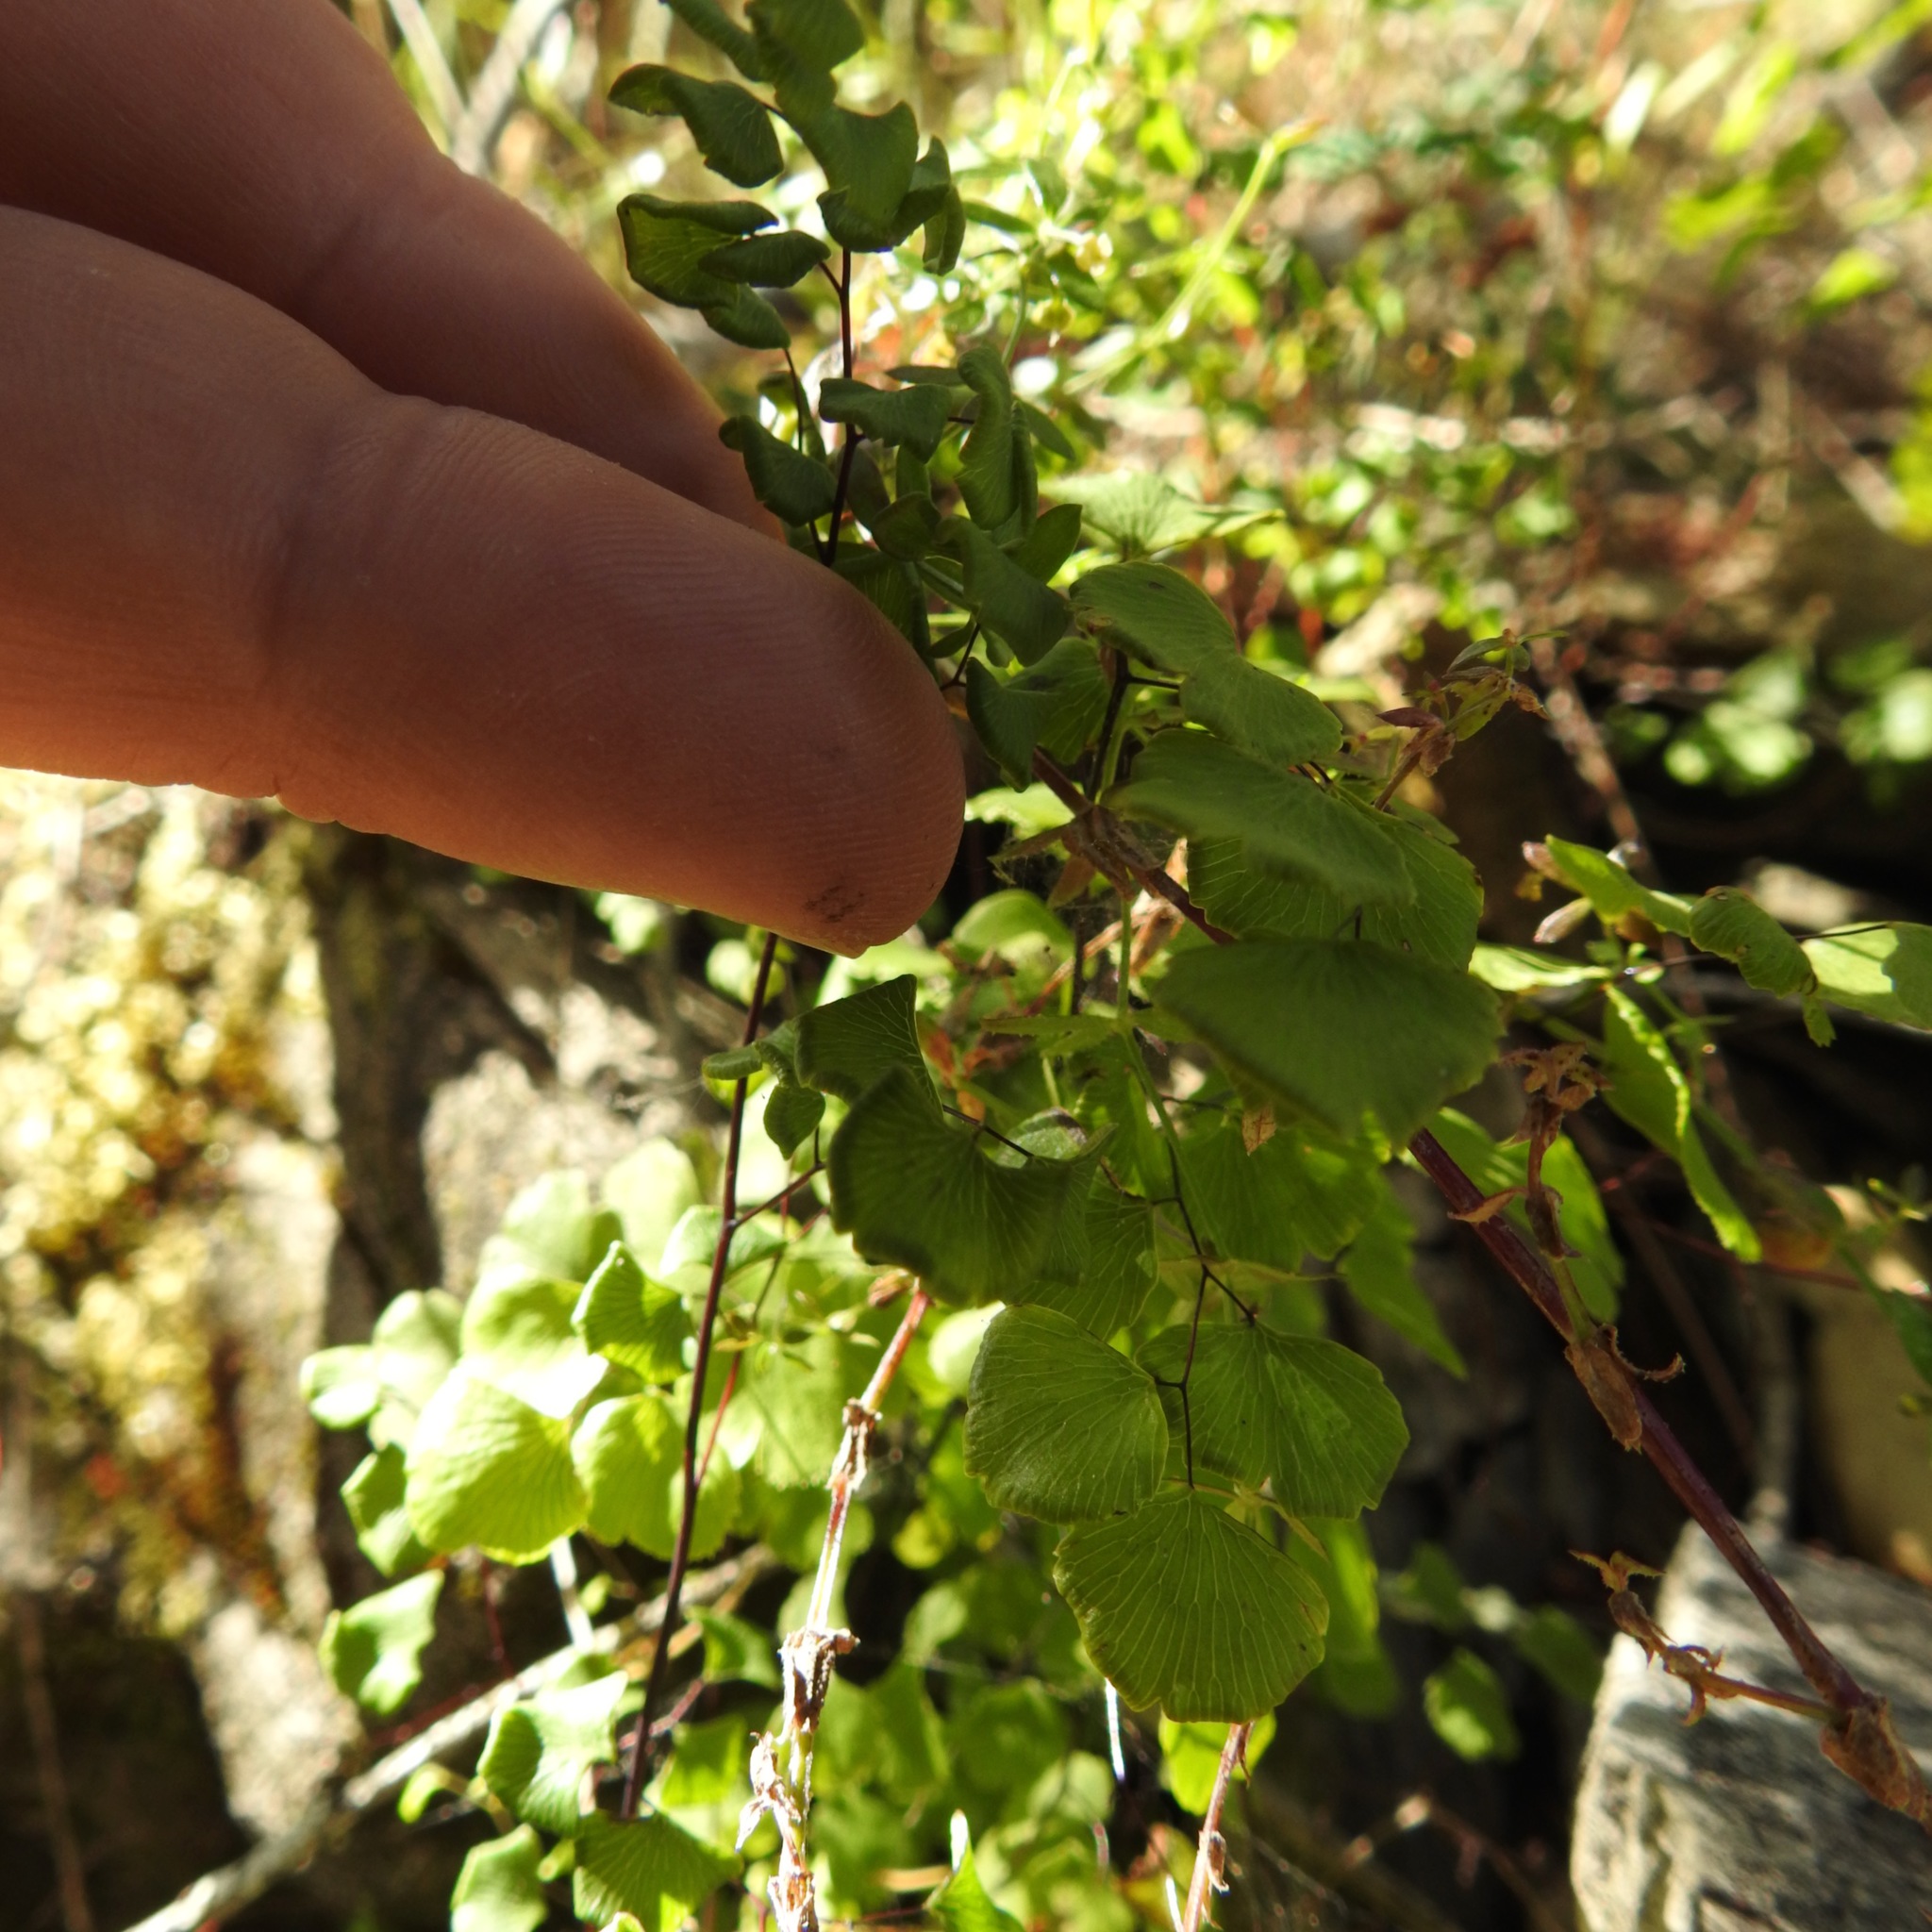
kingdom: Plantae
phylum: Tracheophyta
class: Polypodiopsida
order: Polypodiales
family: Pteridaceae
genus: Adiantum
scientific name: Adiantum jordanii
